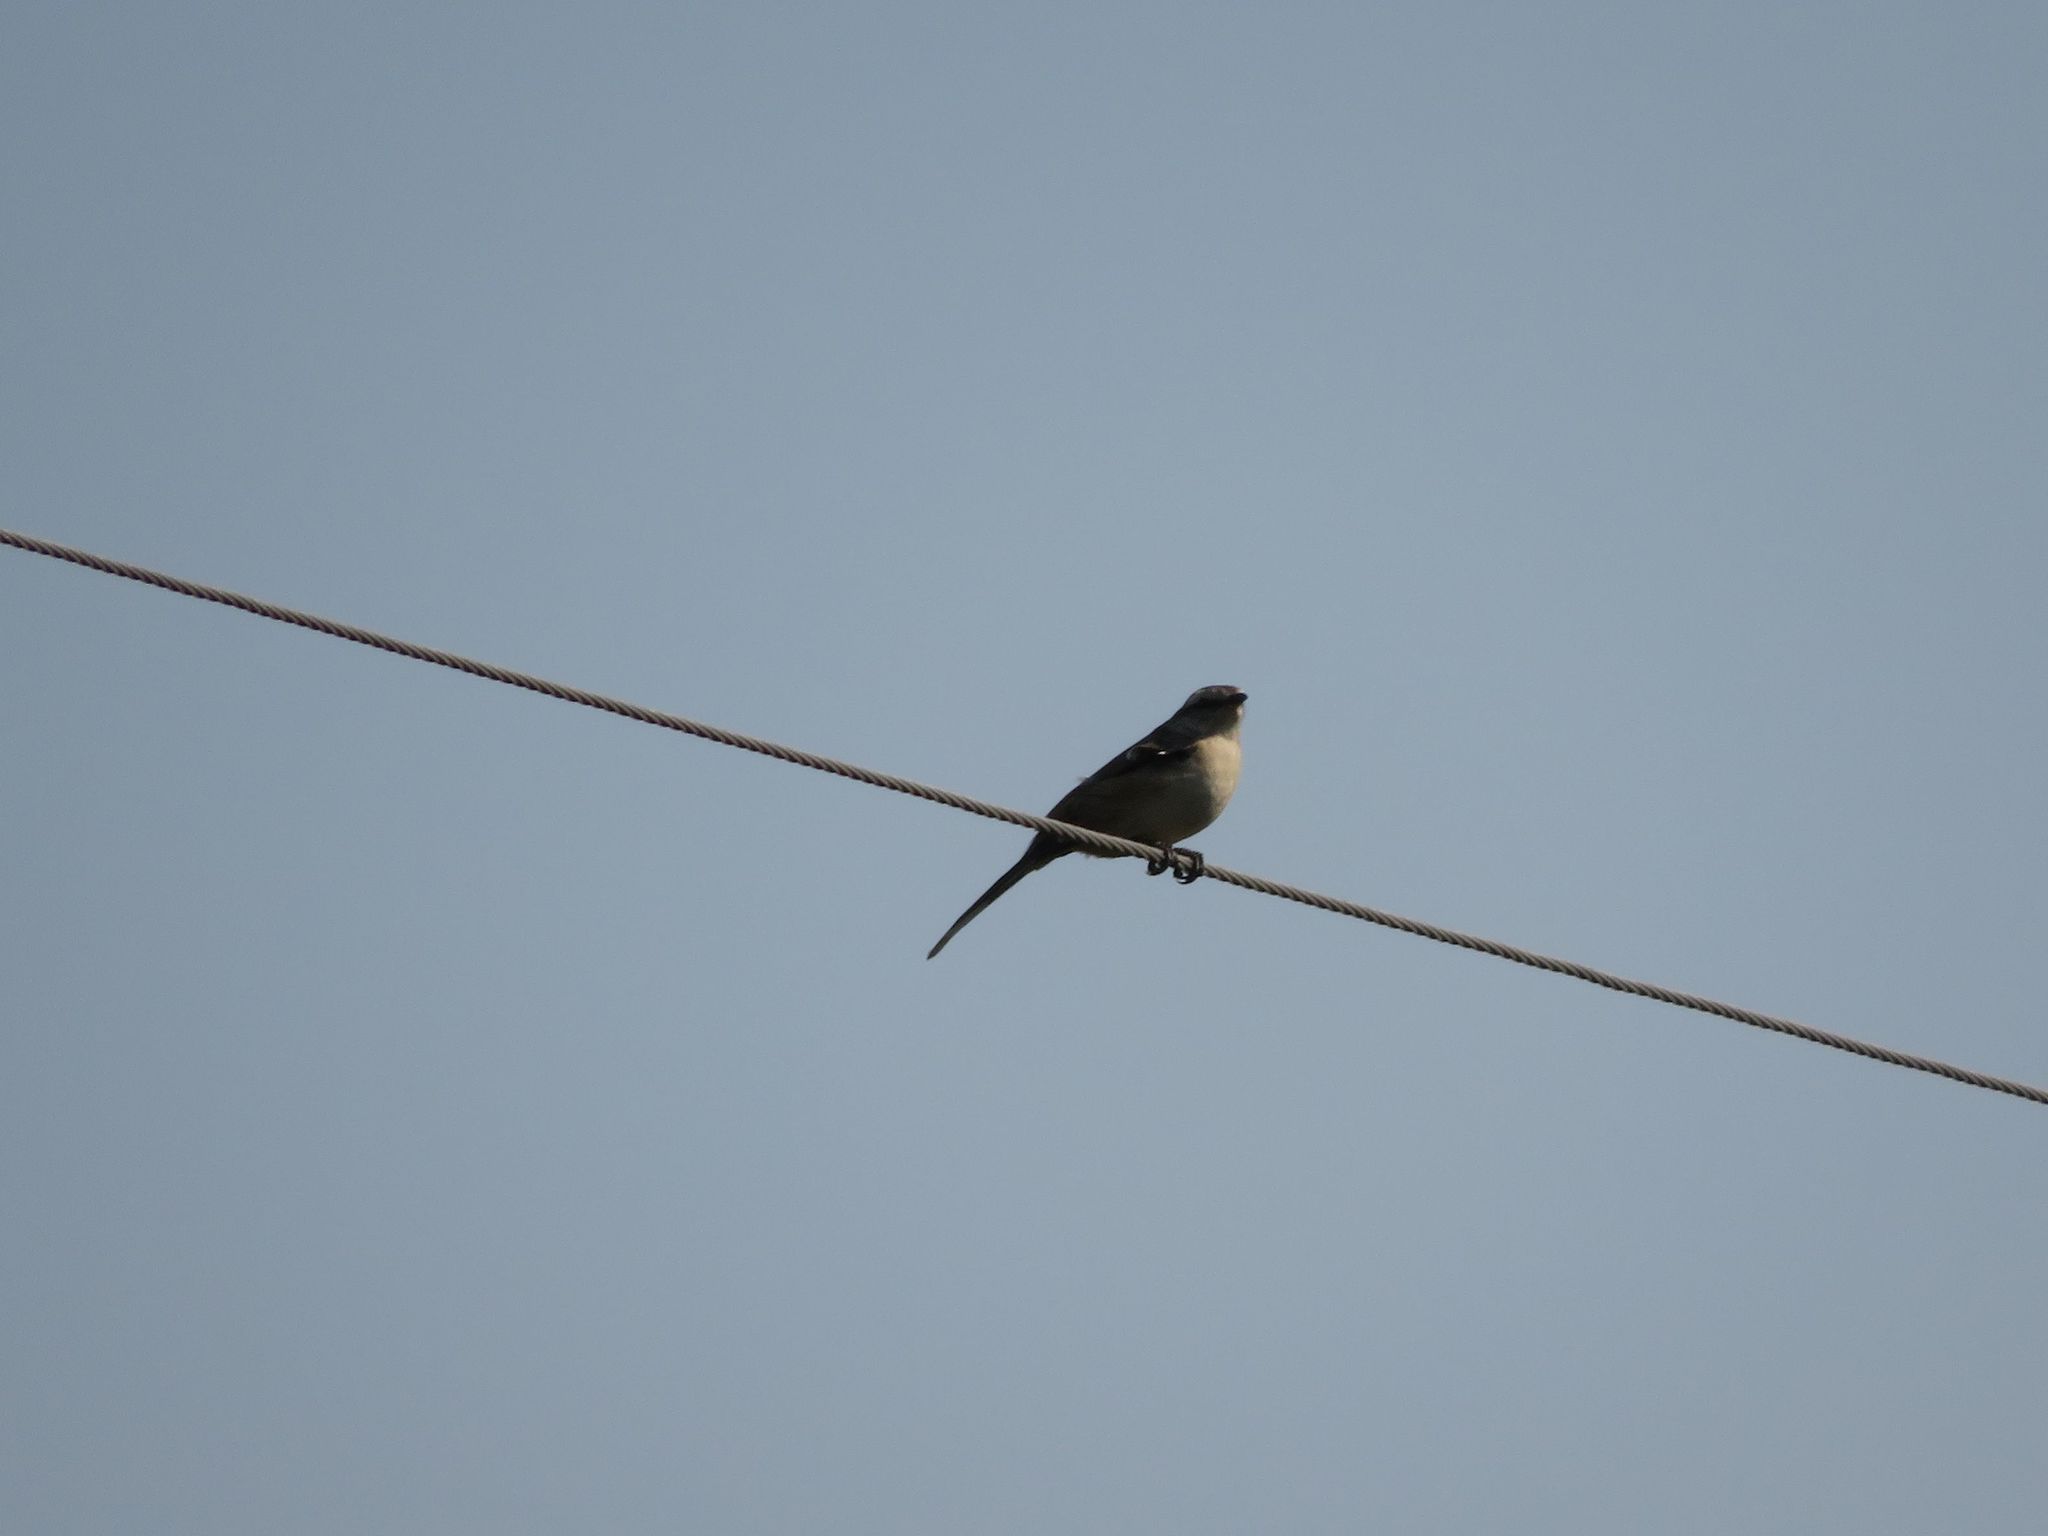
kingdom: Animalia
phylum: Chordata
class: Aves
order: Passeriformes
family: Mimidae
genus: Mimus
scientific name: Mimus saturninus
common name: Chalk-browed mockingbird
